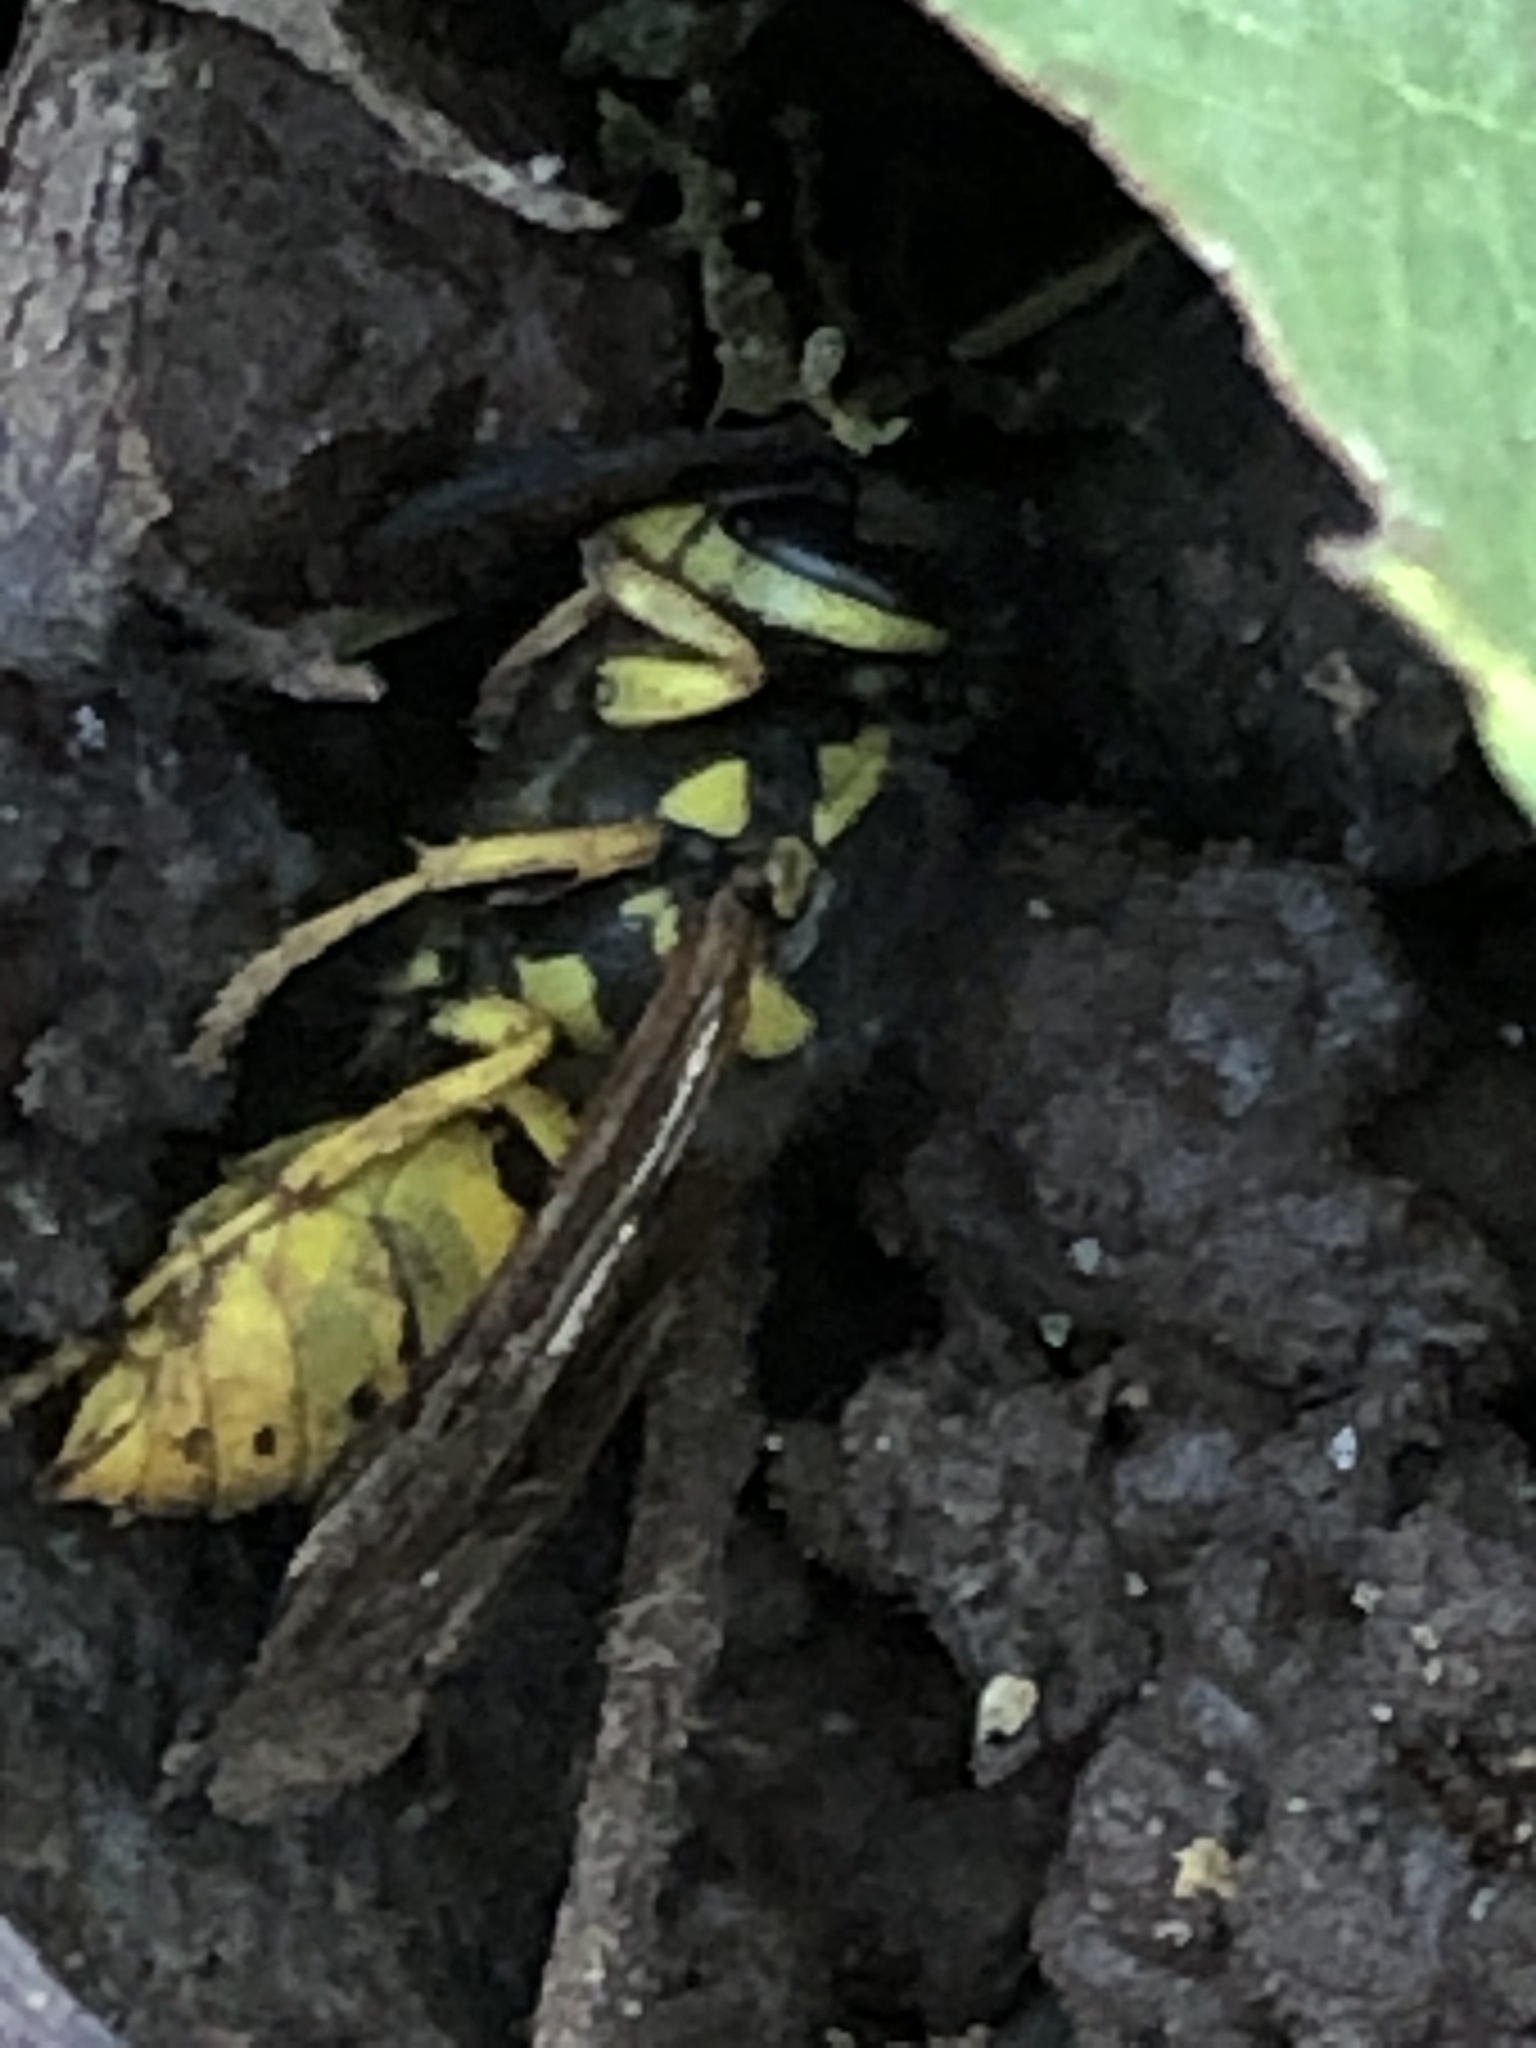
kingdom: Animalia
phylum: Arthropoda
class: Insecta
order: Hymenoptera
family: Vespidae
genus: Vespula
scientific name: Vespula germanica
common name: German wasp
